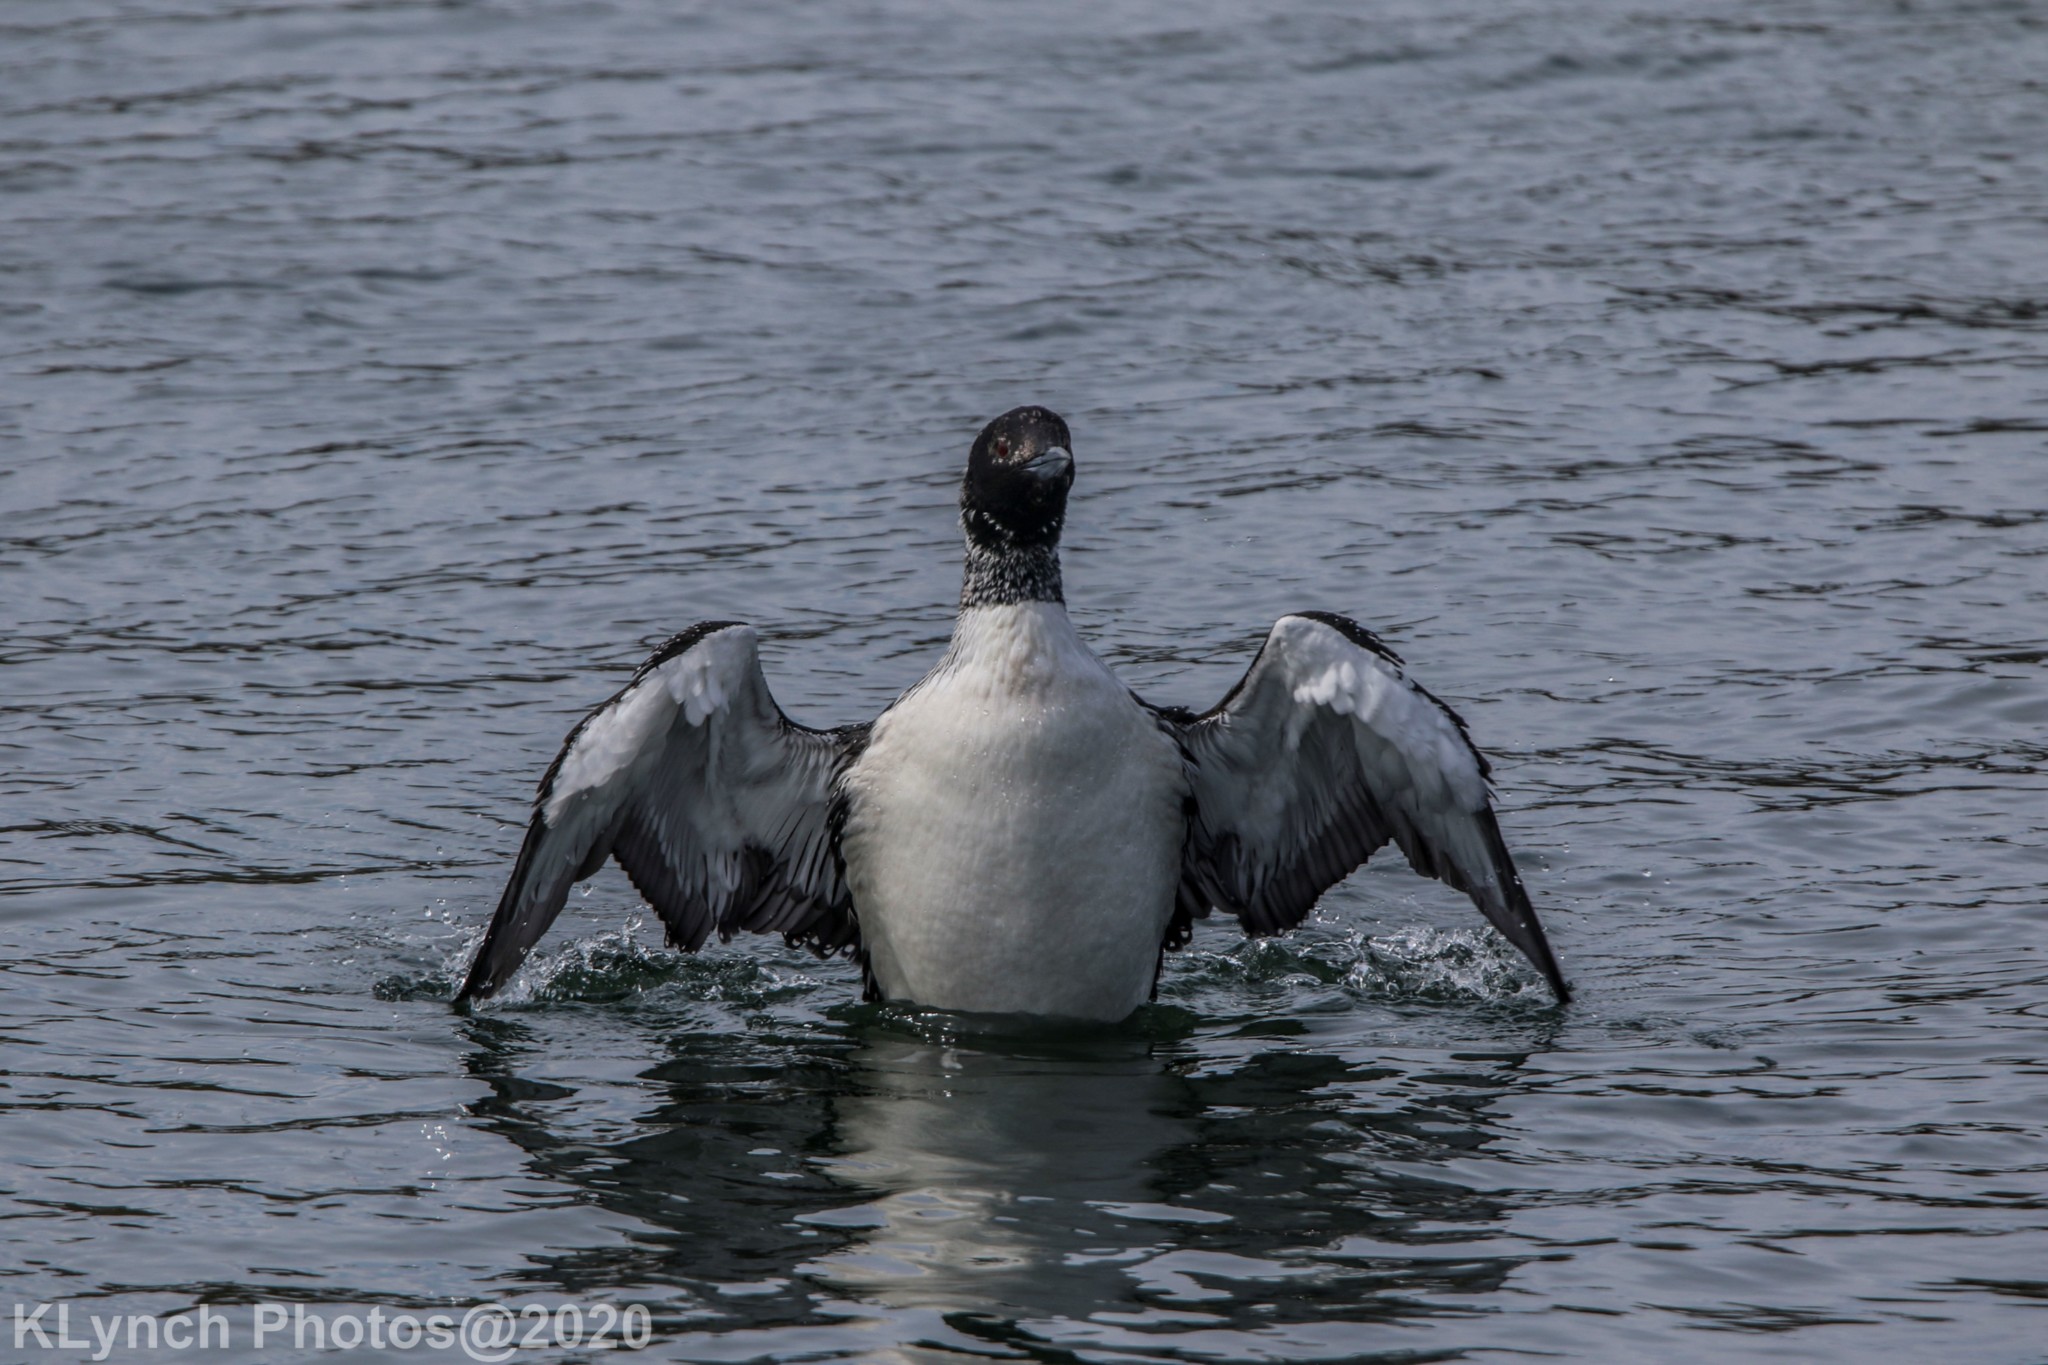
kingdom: Animalia
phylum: Chordata
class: Aves
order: Gaviiformes
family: Gaviidae
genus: Gavia
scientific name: Gavia immer
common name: Common loon
